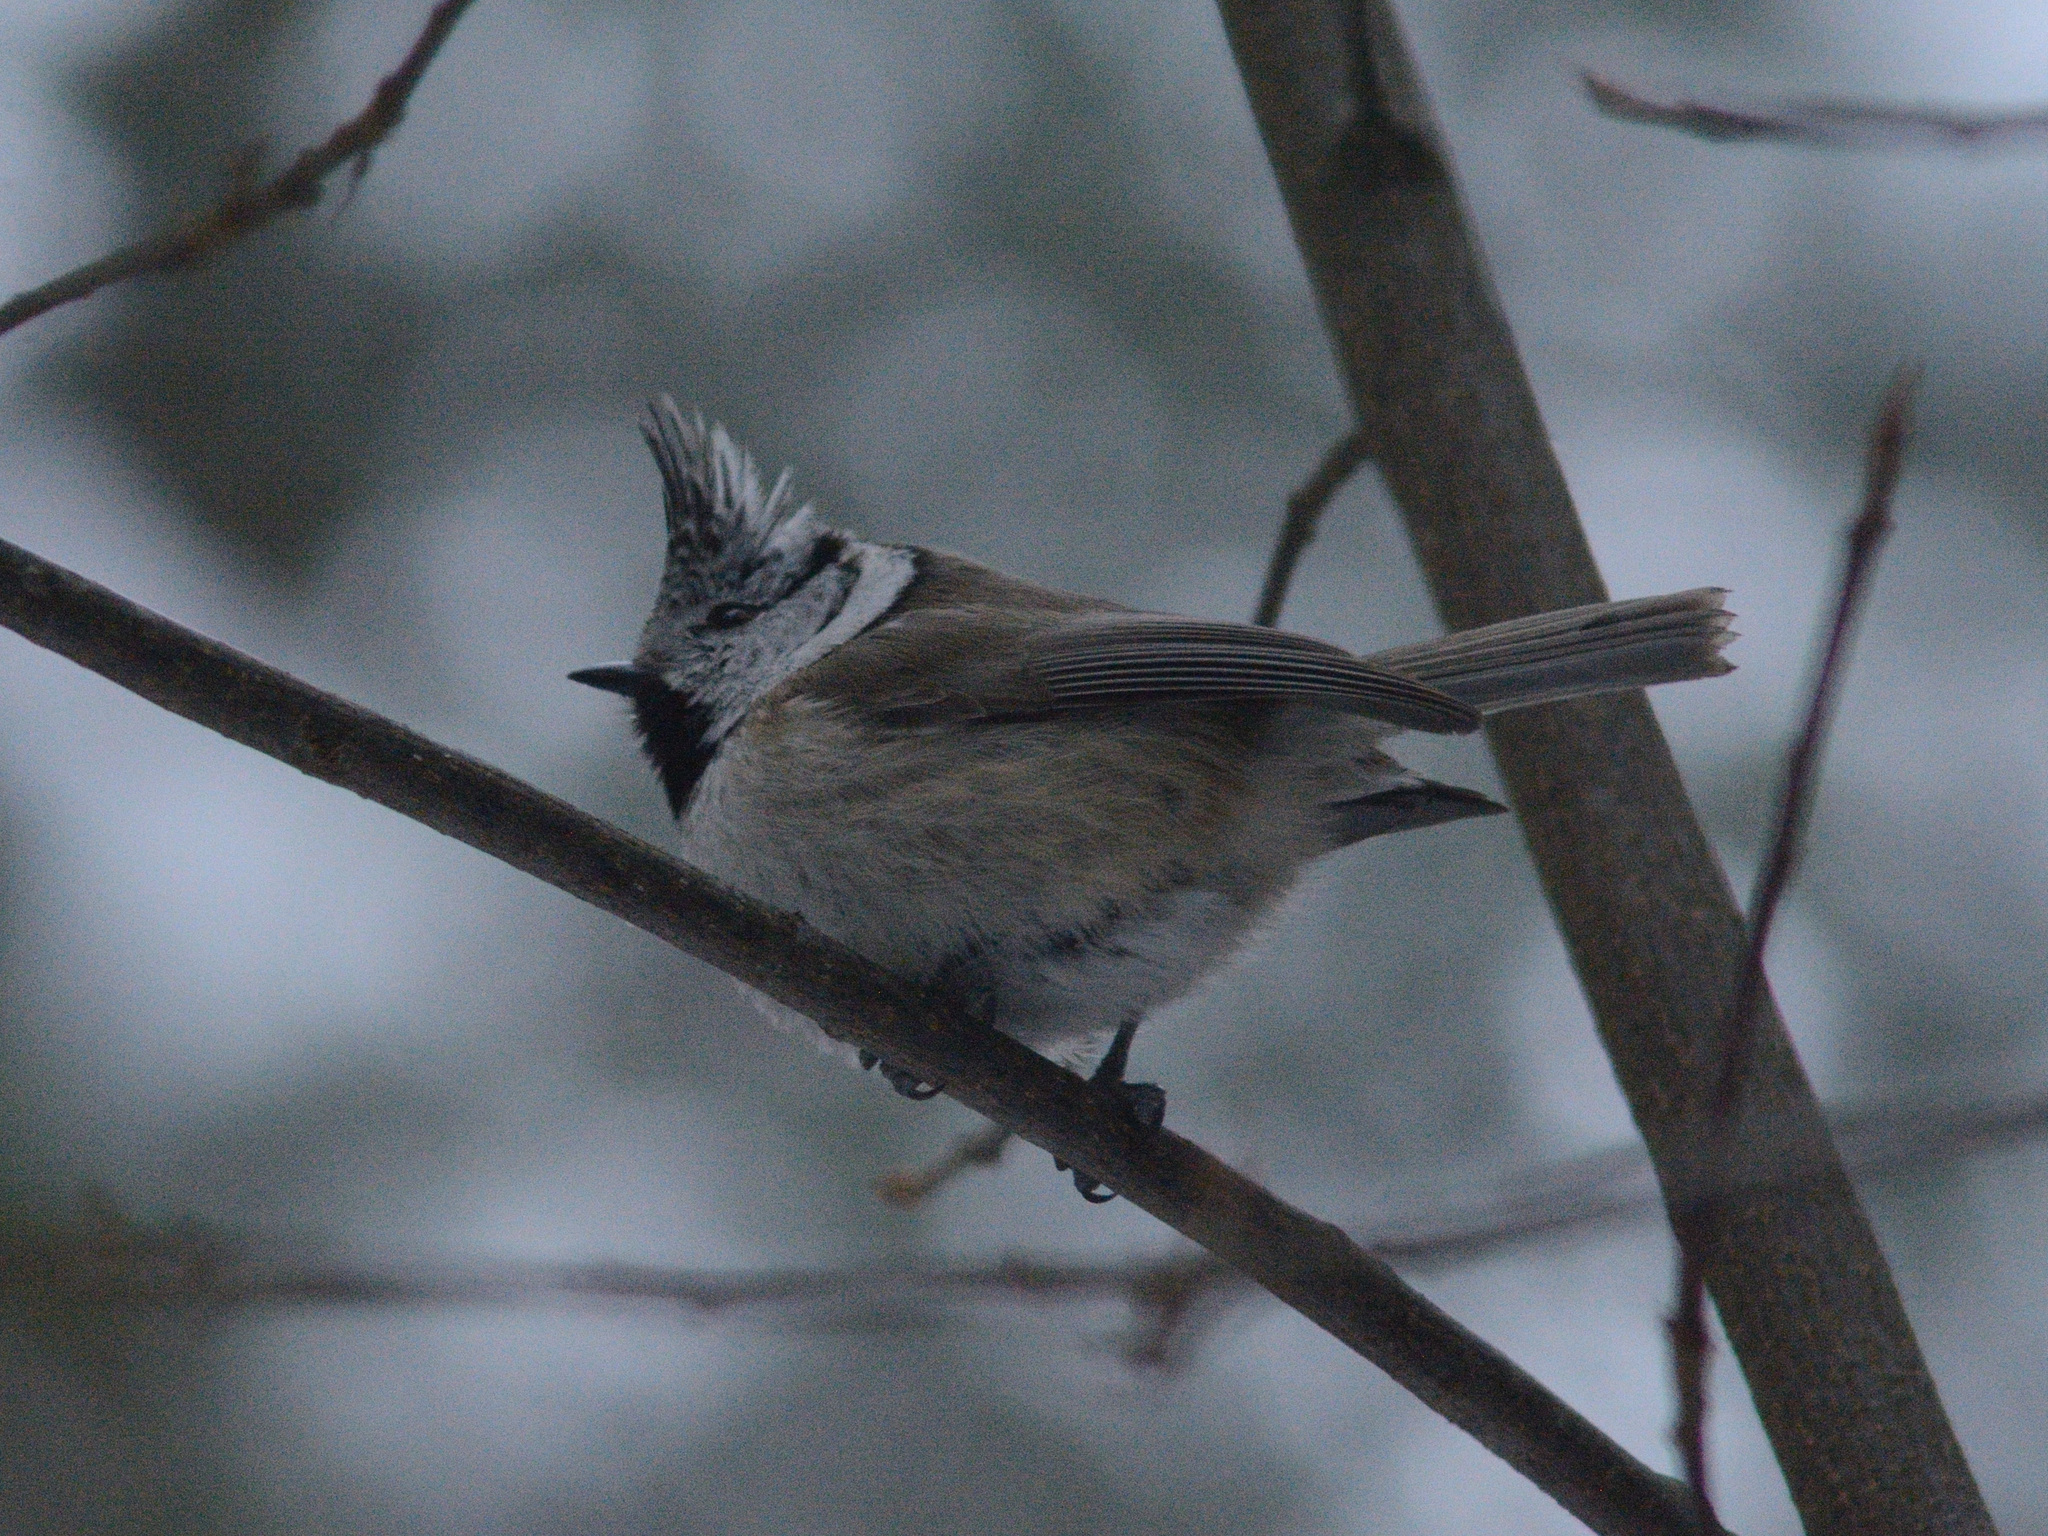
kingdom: Animalia
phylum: Chordata
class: Aves
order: Passeriformes
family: Paridae
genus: Lophophanes
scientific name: Lophophanes cristatus
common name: European crested tit
